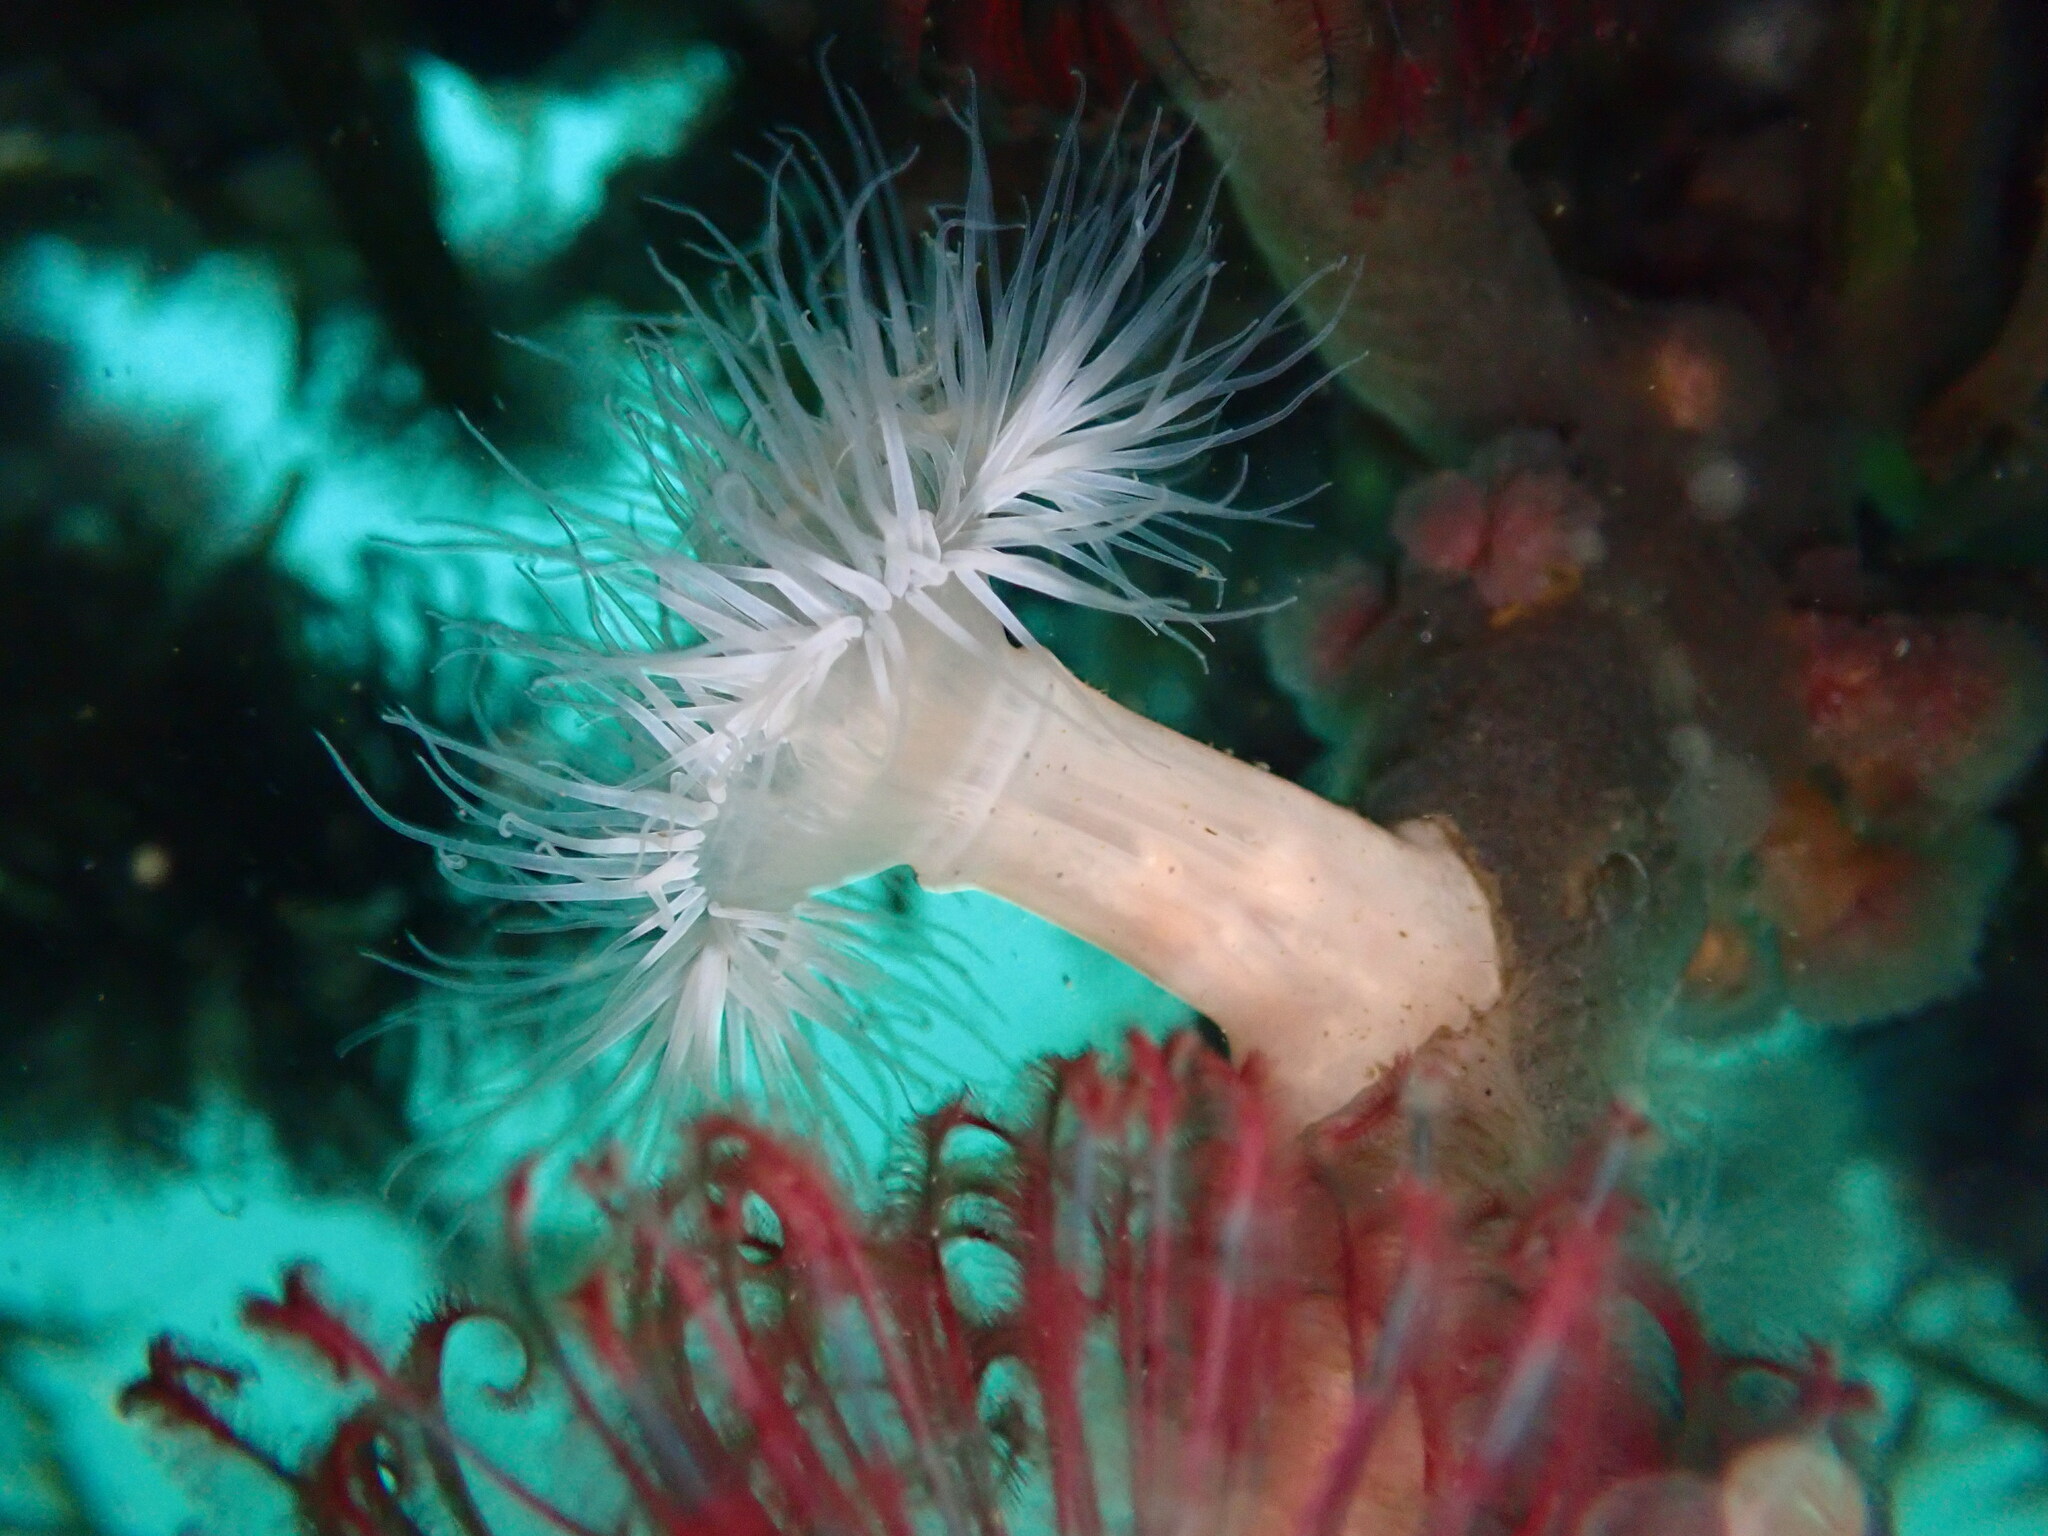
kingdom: Animalia
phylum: Cnidaria
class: Anthozoa
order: Actiniaria
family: Metridiidae
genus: Metridium
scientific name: Metridium senile
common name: Clonal plumose anemone
